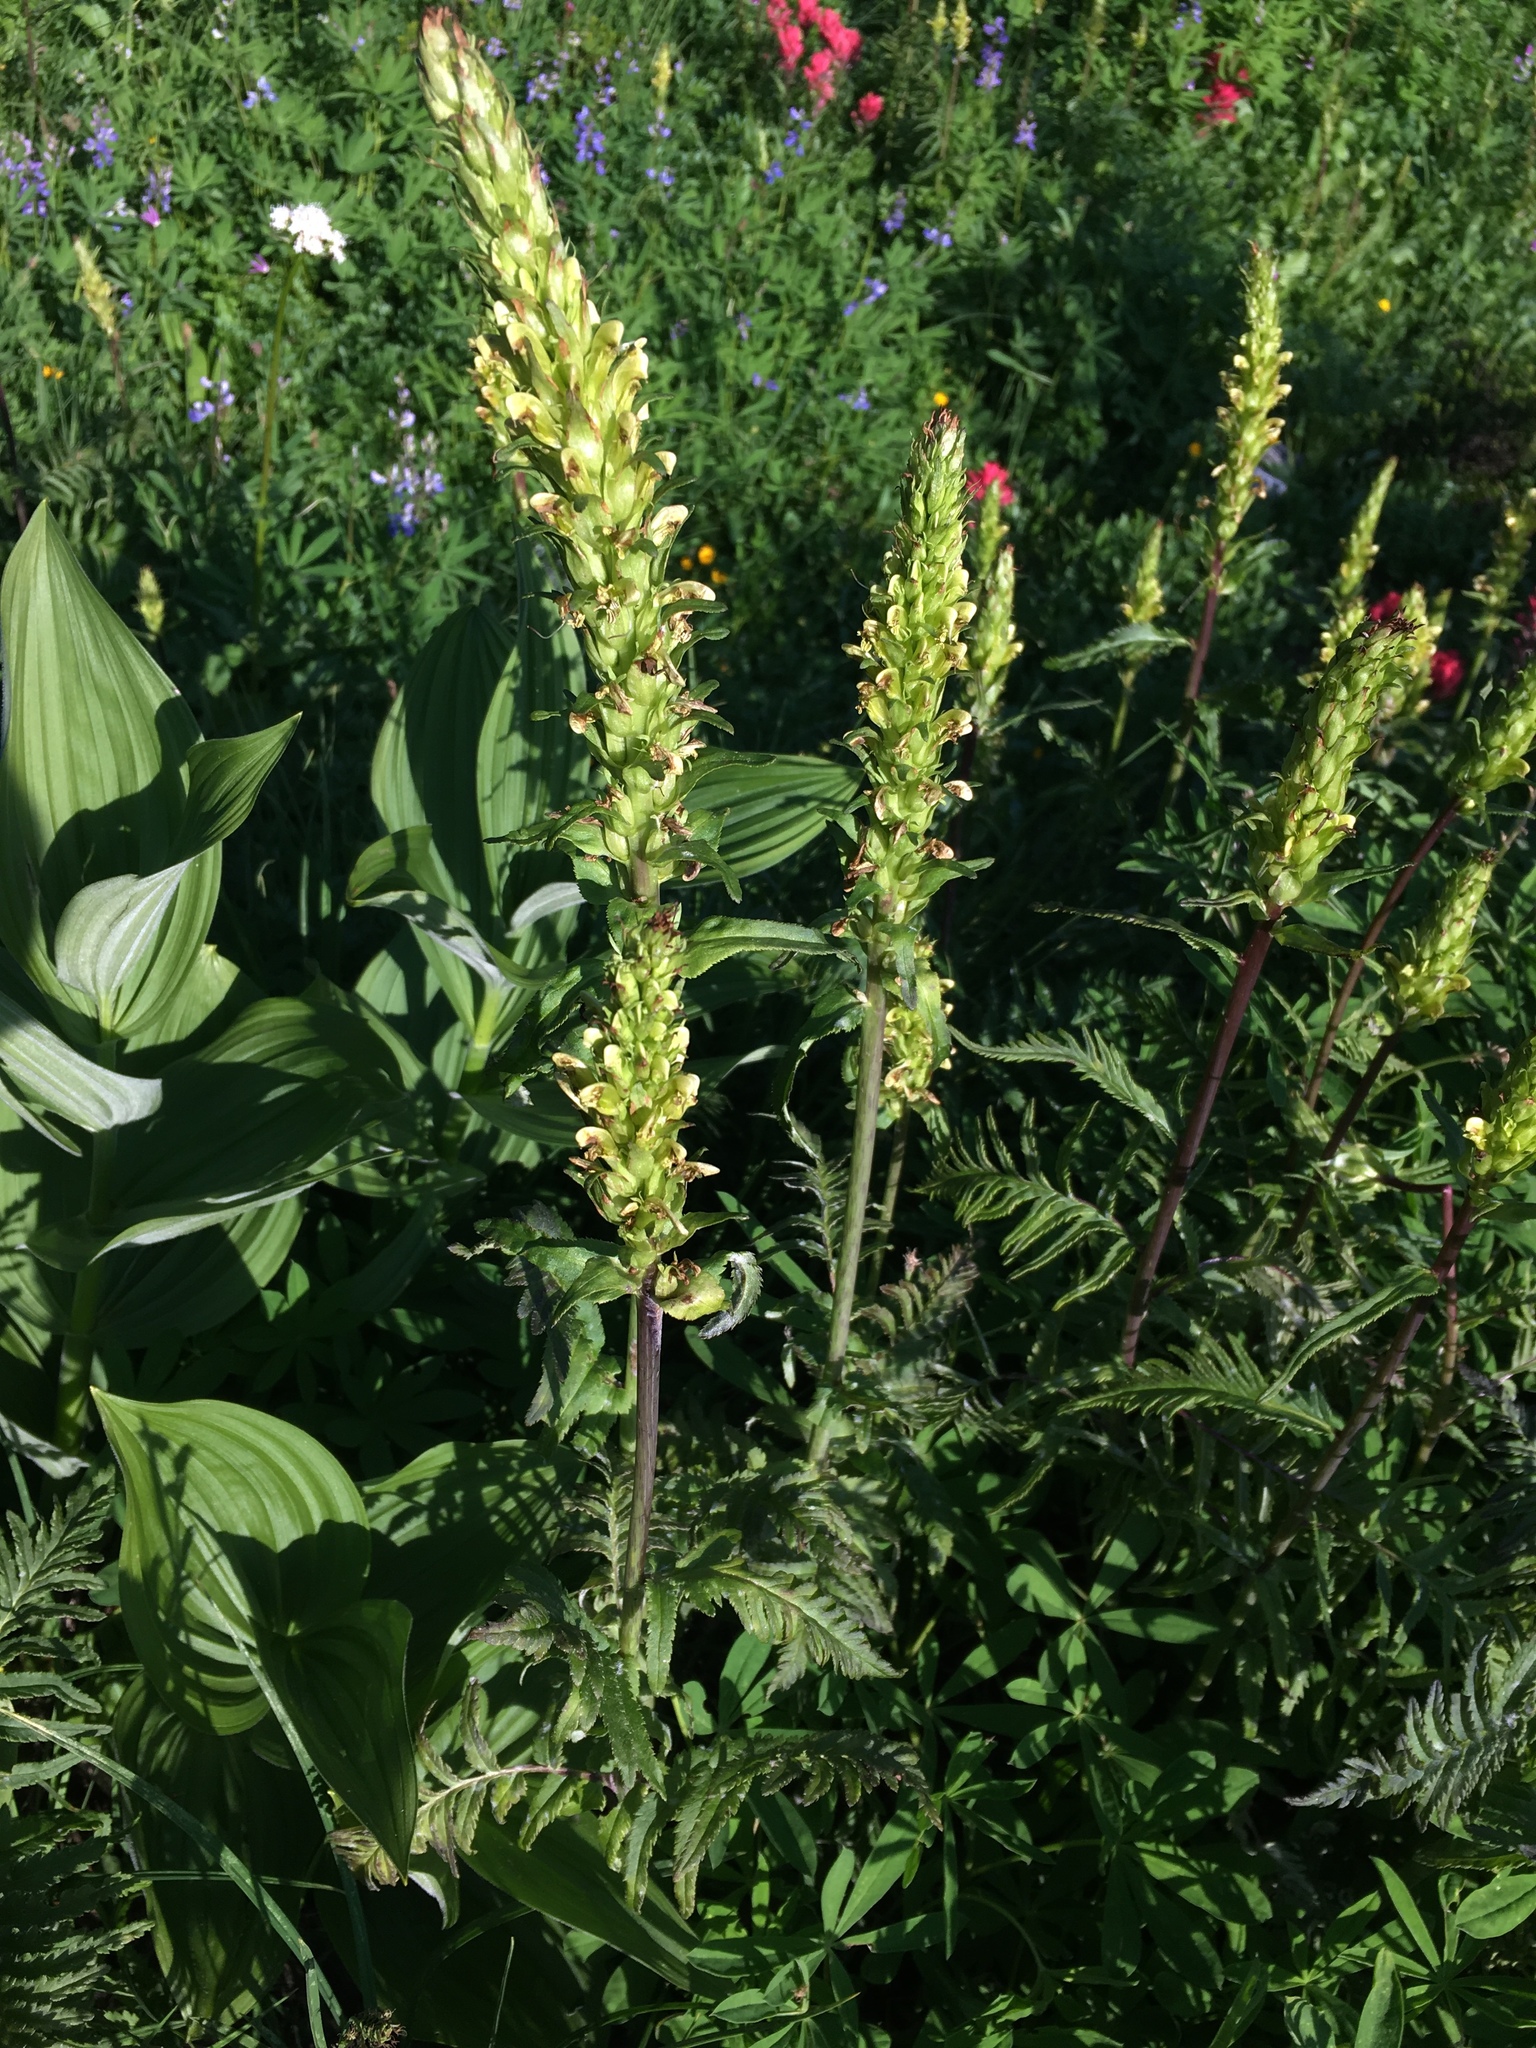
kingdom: Plantae
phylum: Tracheophyta
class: Magnoliopsida
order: Lamiales
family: Orobanchaceae
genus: Pedicularis
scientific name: Pedicularis bracteosa
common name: Bracted lousewort
